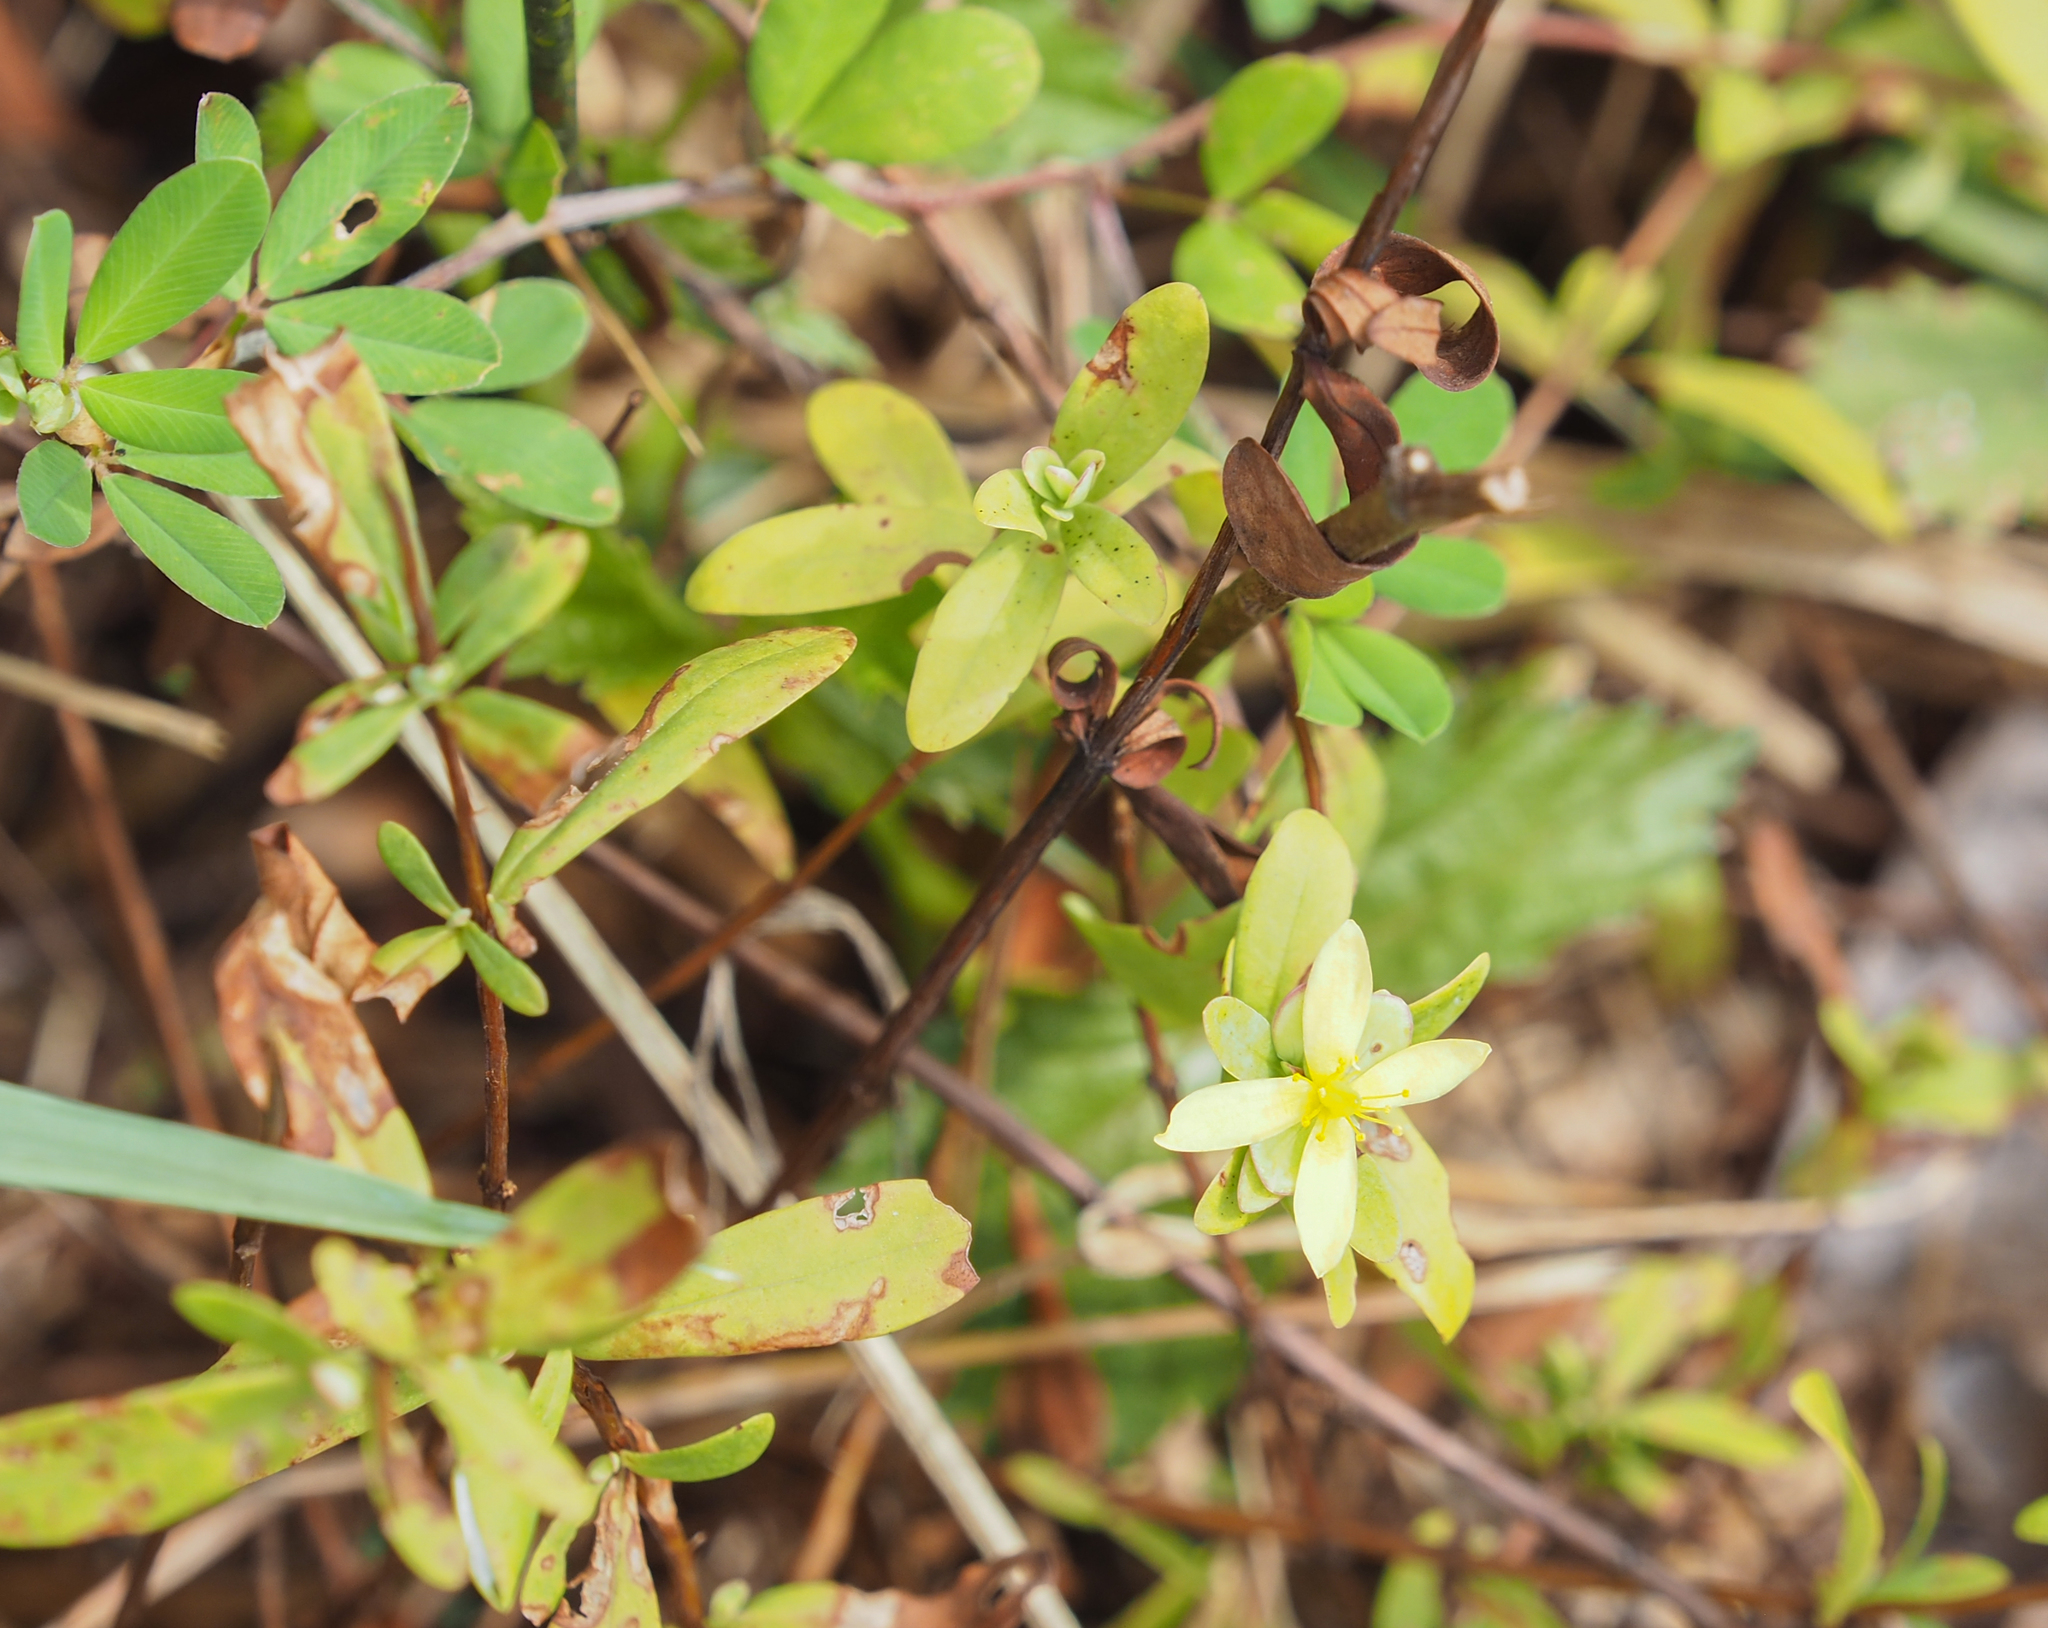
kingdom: Plantae
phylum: Tracheophyta
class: Magnoliopsida
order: Malpighiales
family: Hypericaceae
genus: Hypericum
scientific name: Hypericum hypericoides
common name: St. andrew's cross
